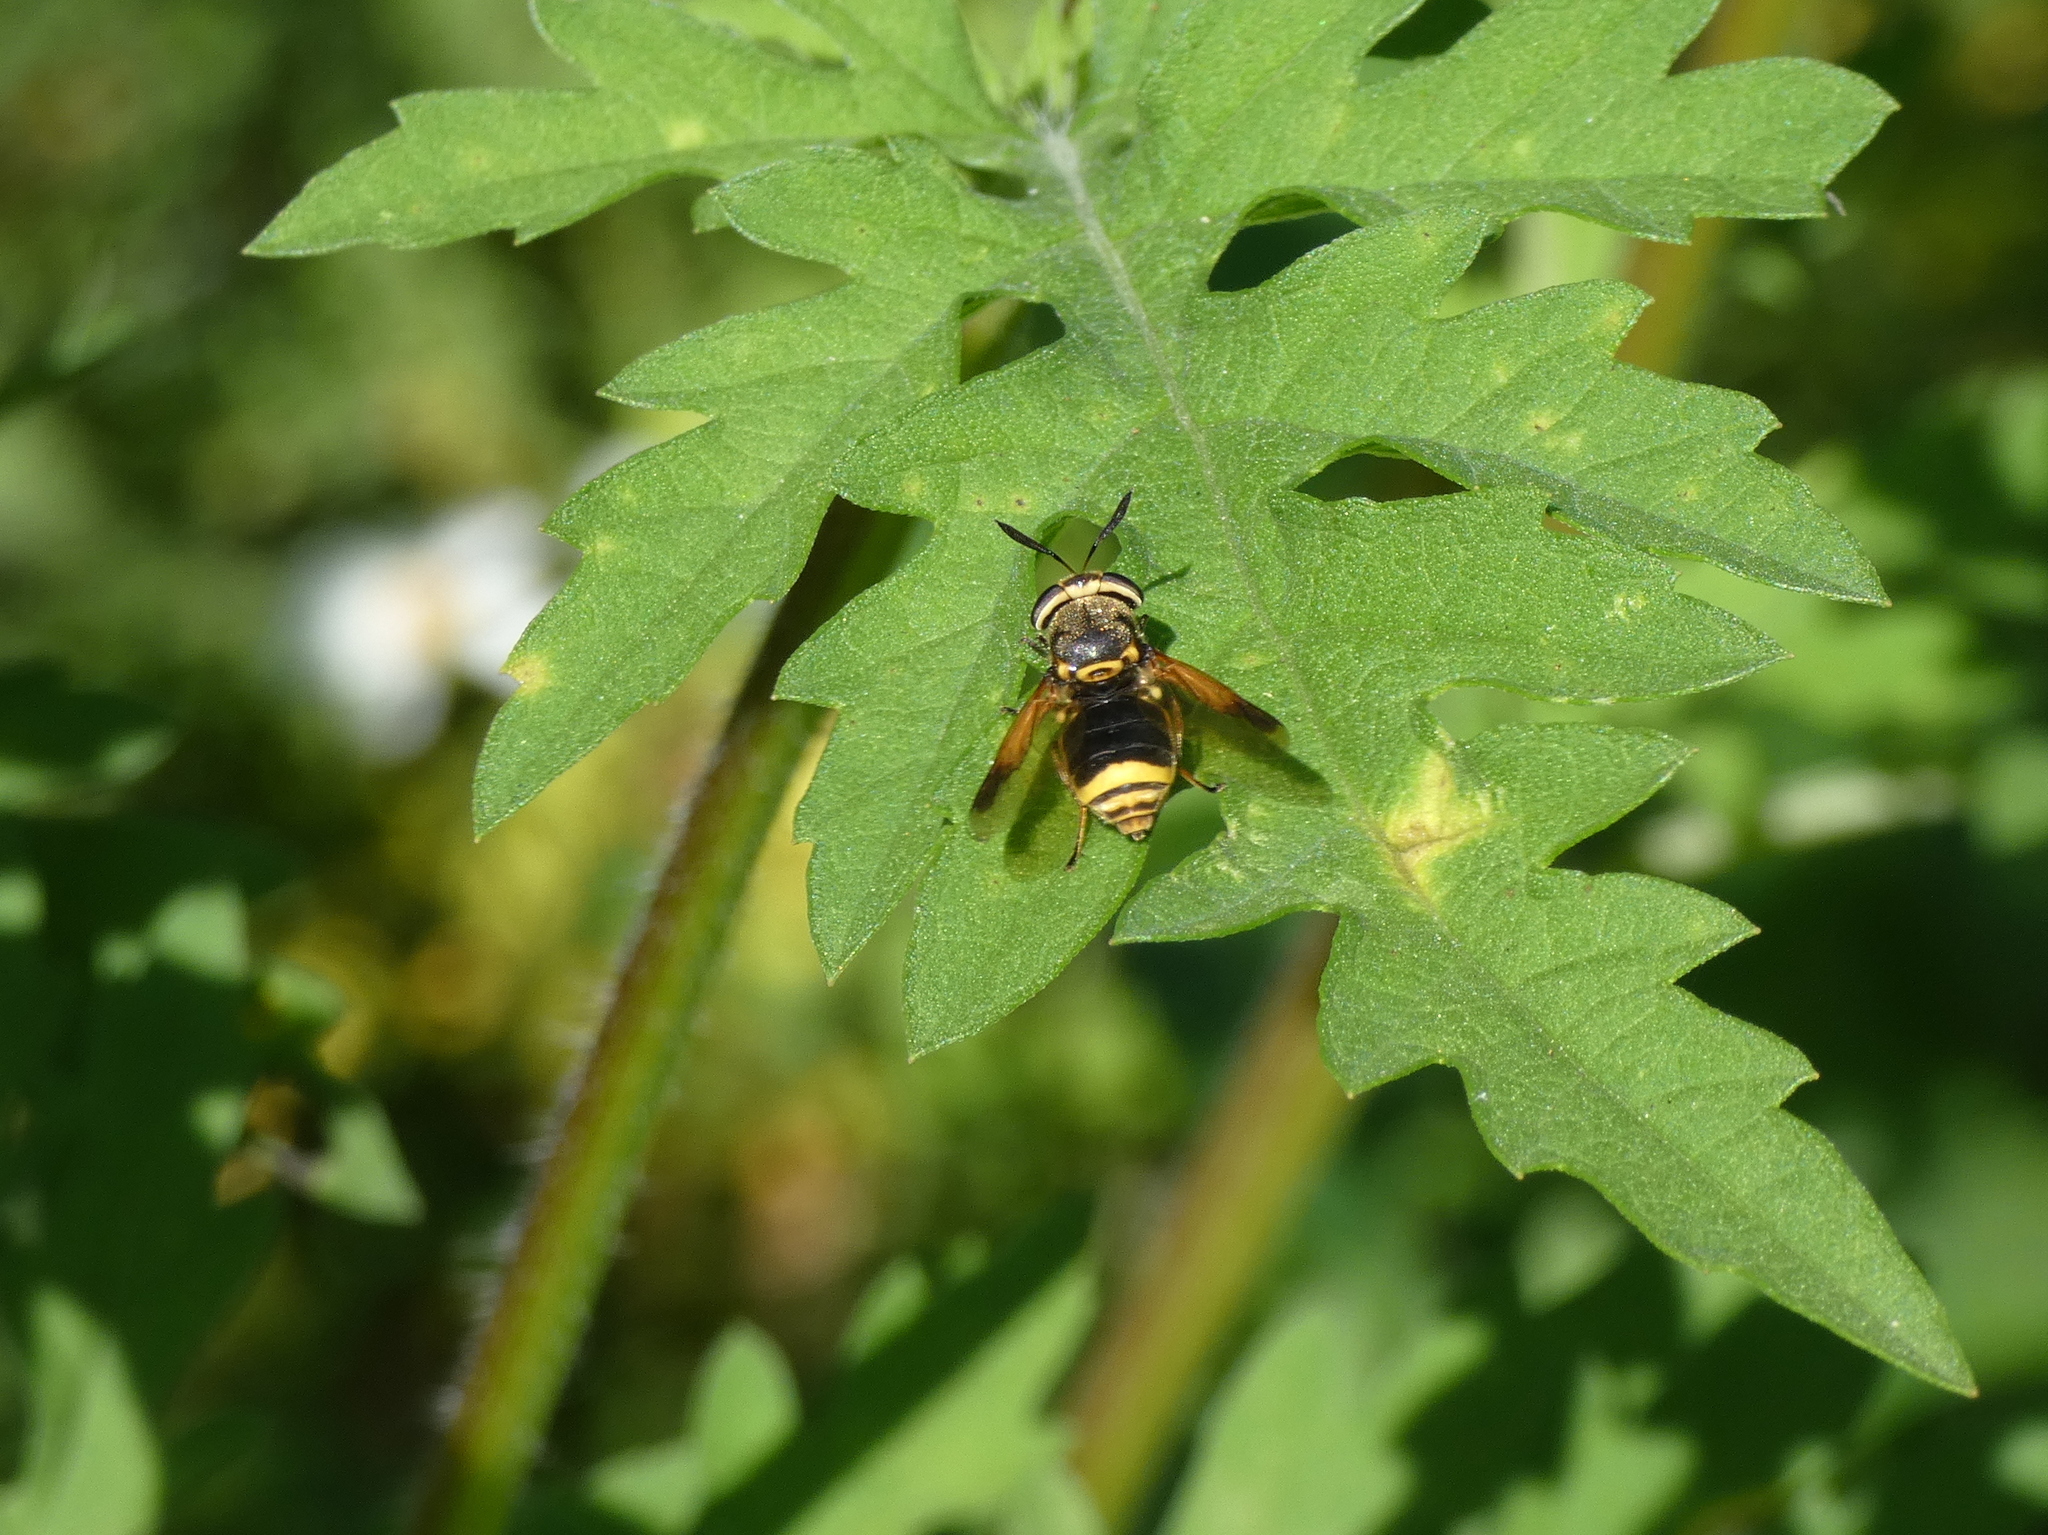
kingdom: Animalia
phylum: Arthropoda
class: Insecta
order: Diptera
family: Stratiomyidae
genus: Hoplitimyia
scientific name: Hoplitimyia mutabilis
